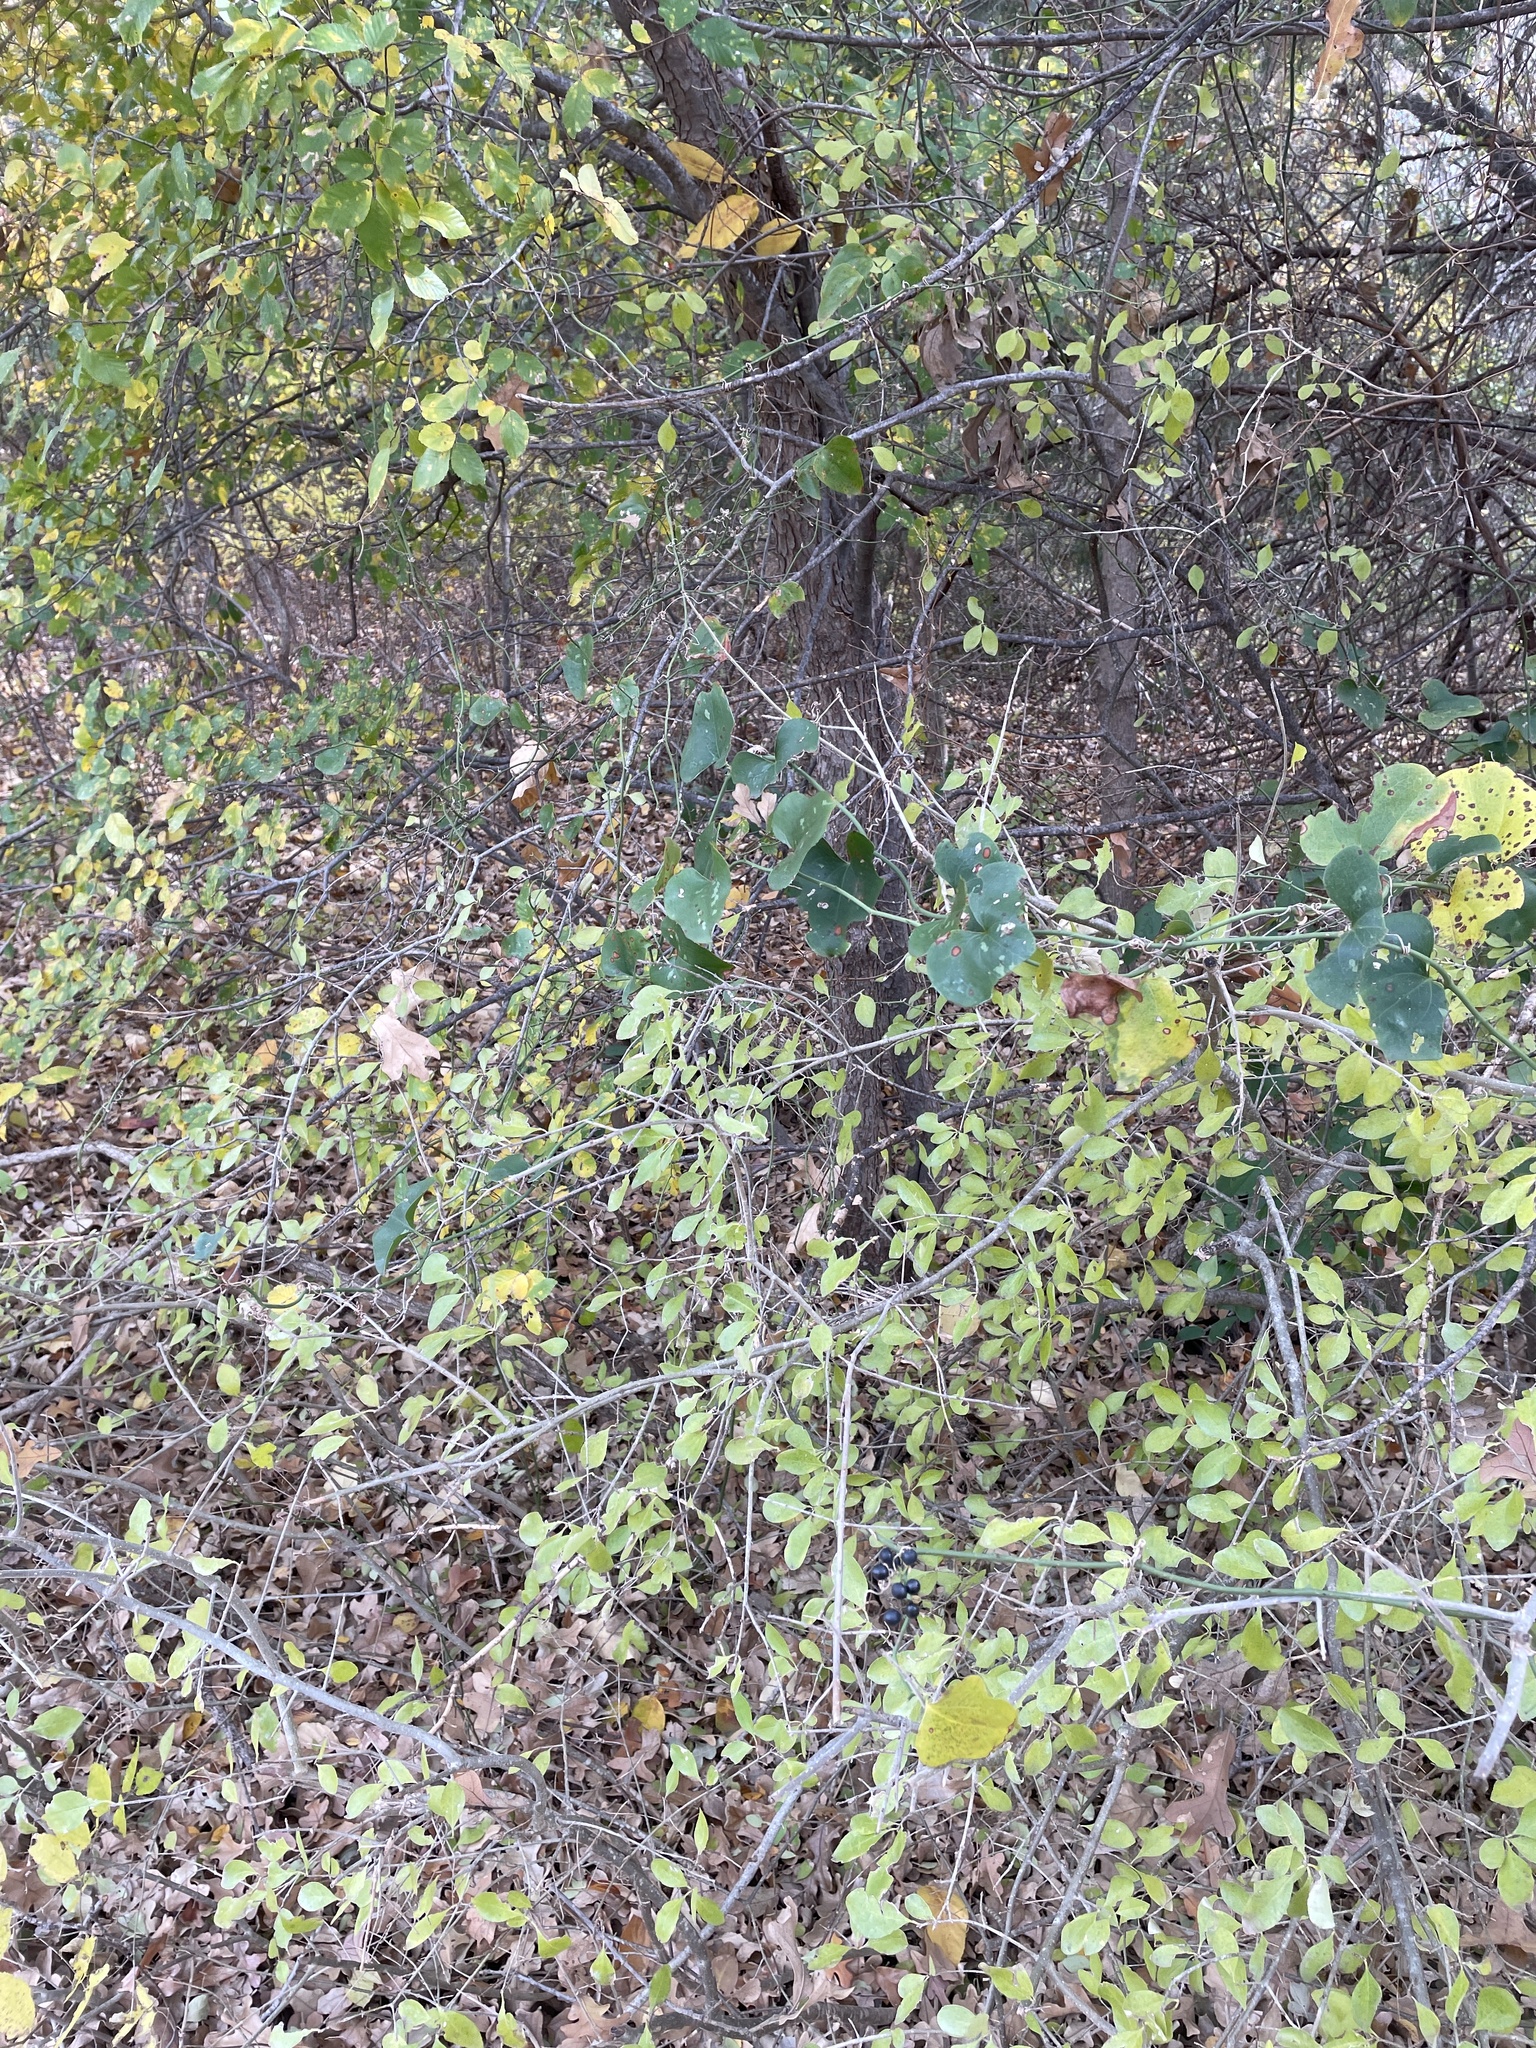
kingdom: Plantae
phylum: Tracheophyta
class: Liliopsida
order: Liliales
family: Smilacaceae
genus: Smilax
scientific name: Smilax bona-nox
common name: Catbrier
